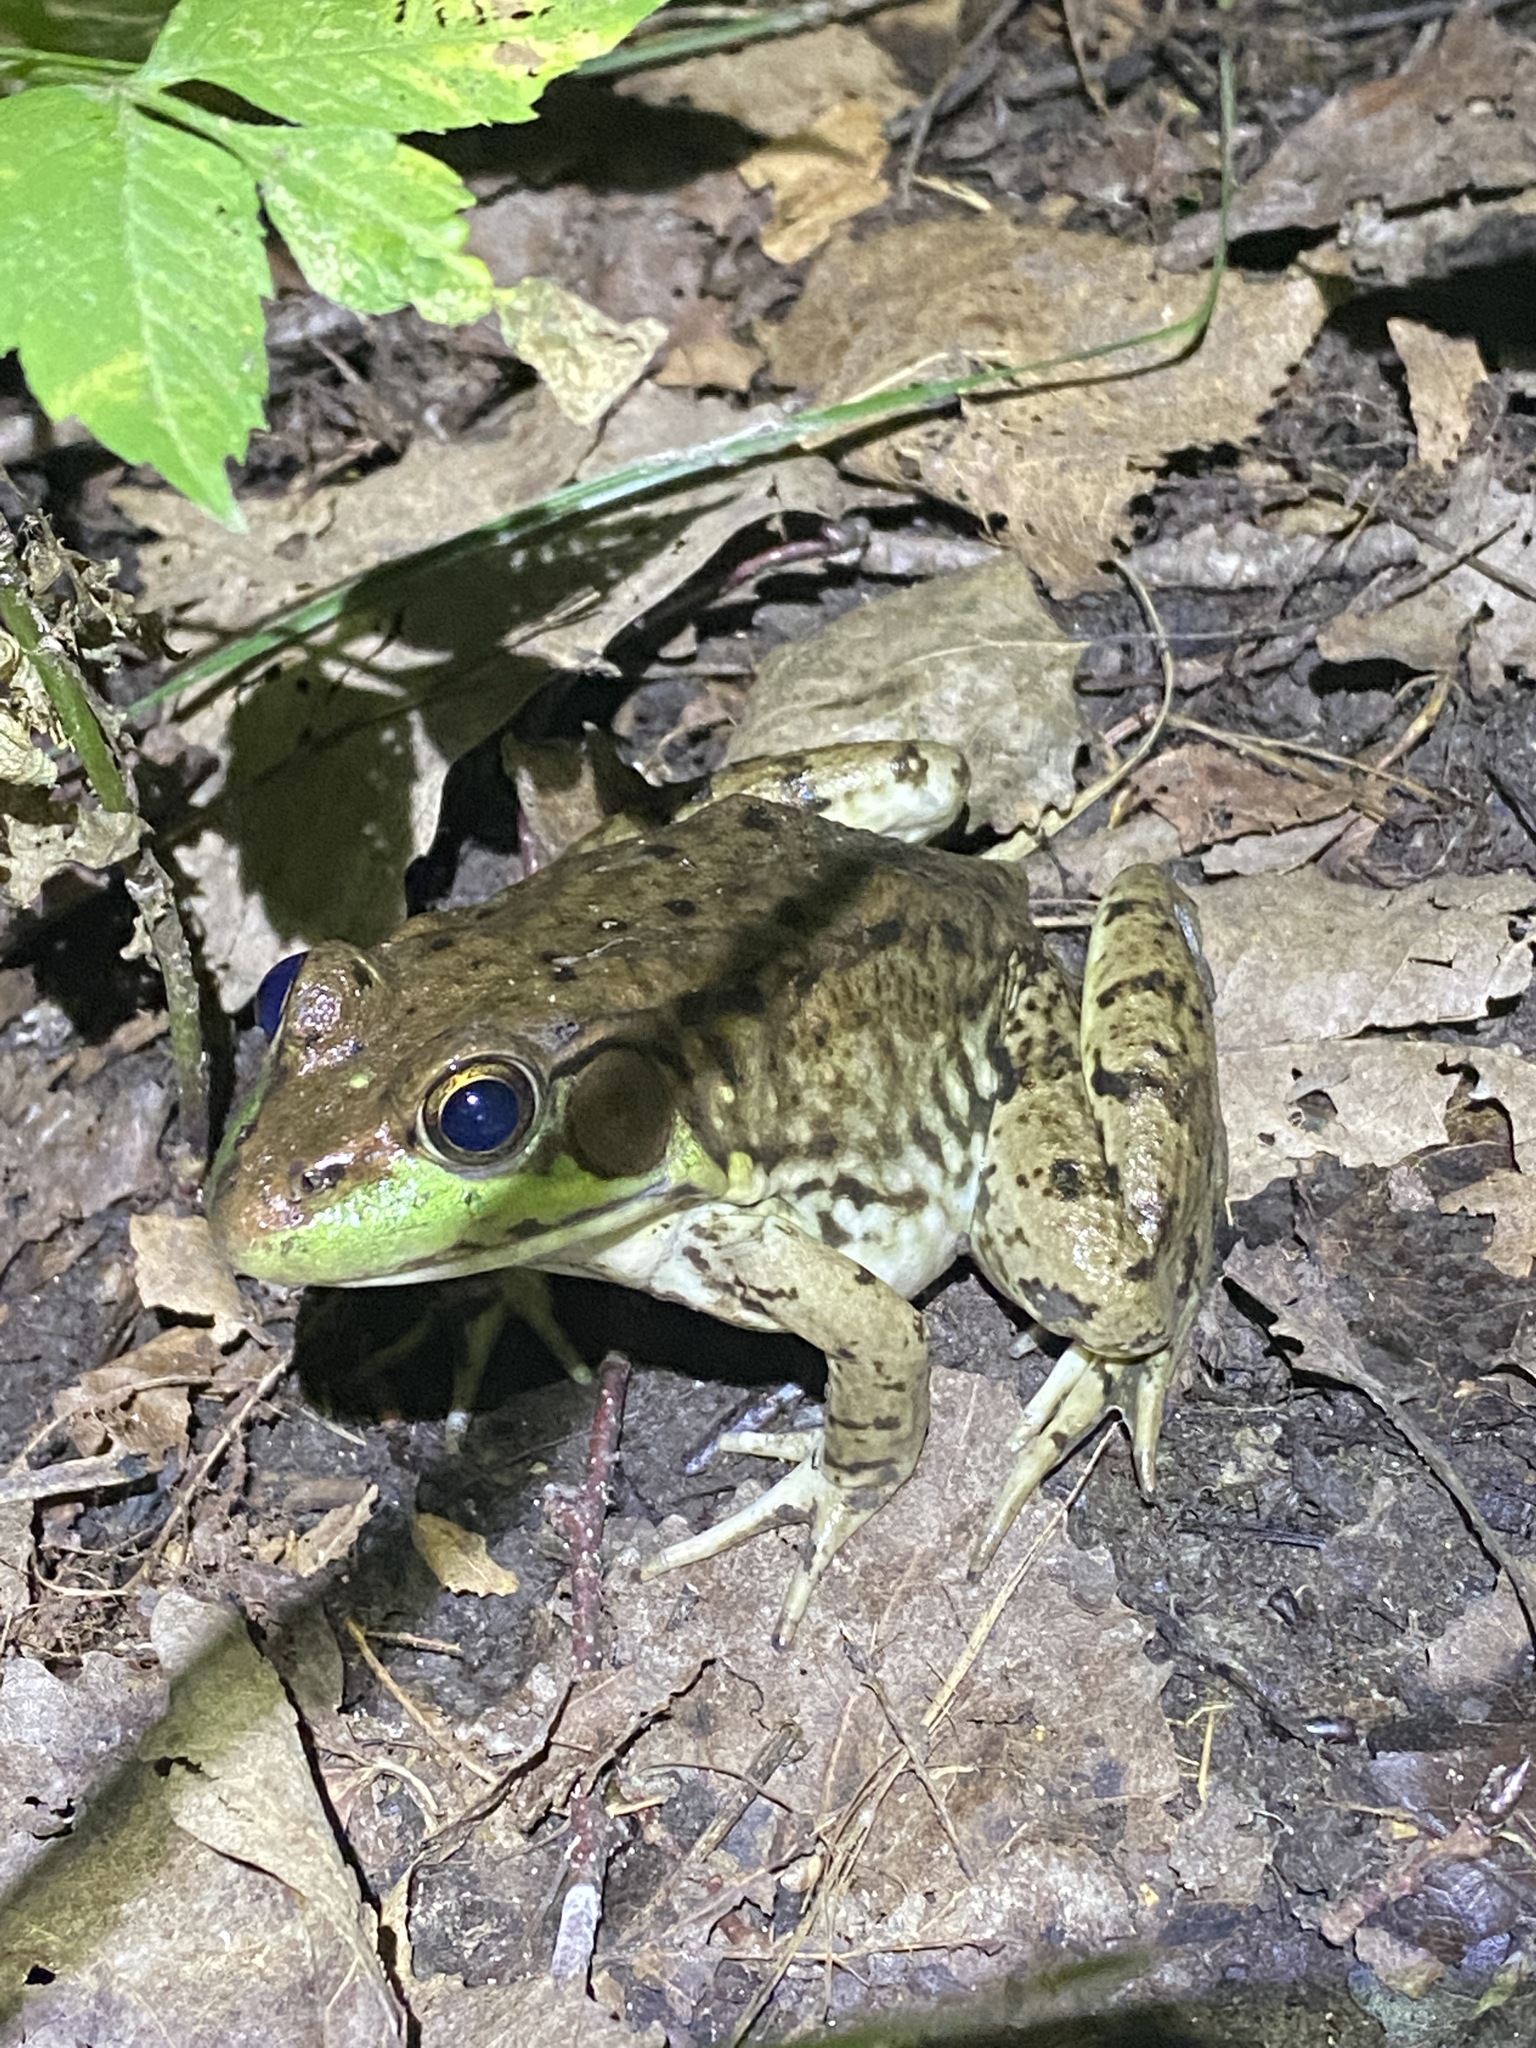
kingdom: Animalia
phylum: Chordata
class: Amphibia
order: Anura
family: Ranidae
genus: Lithobates
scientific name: Lithobates clamitans
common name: Green frog
